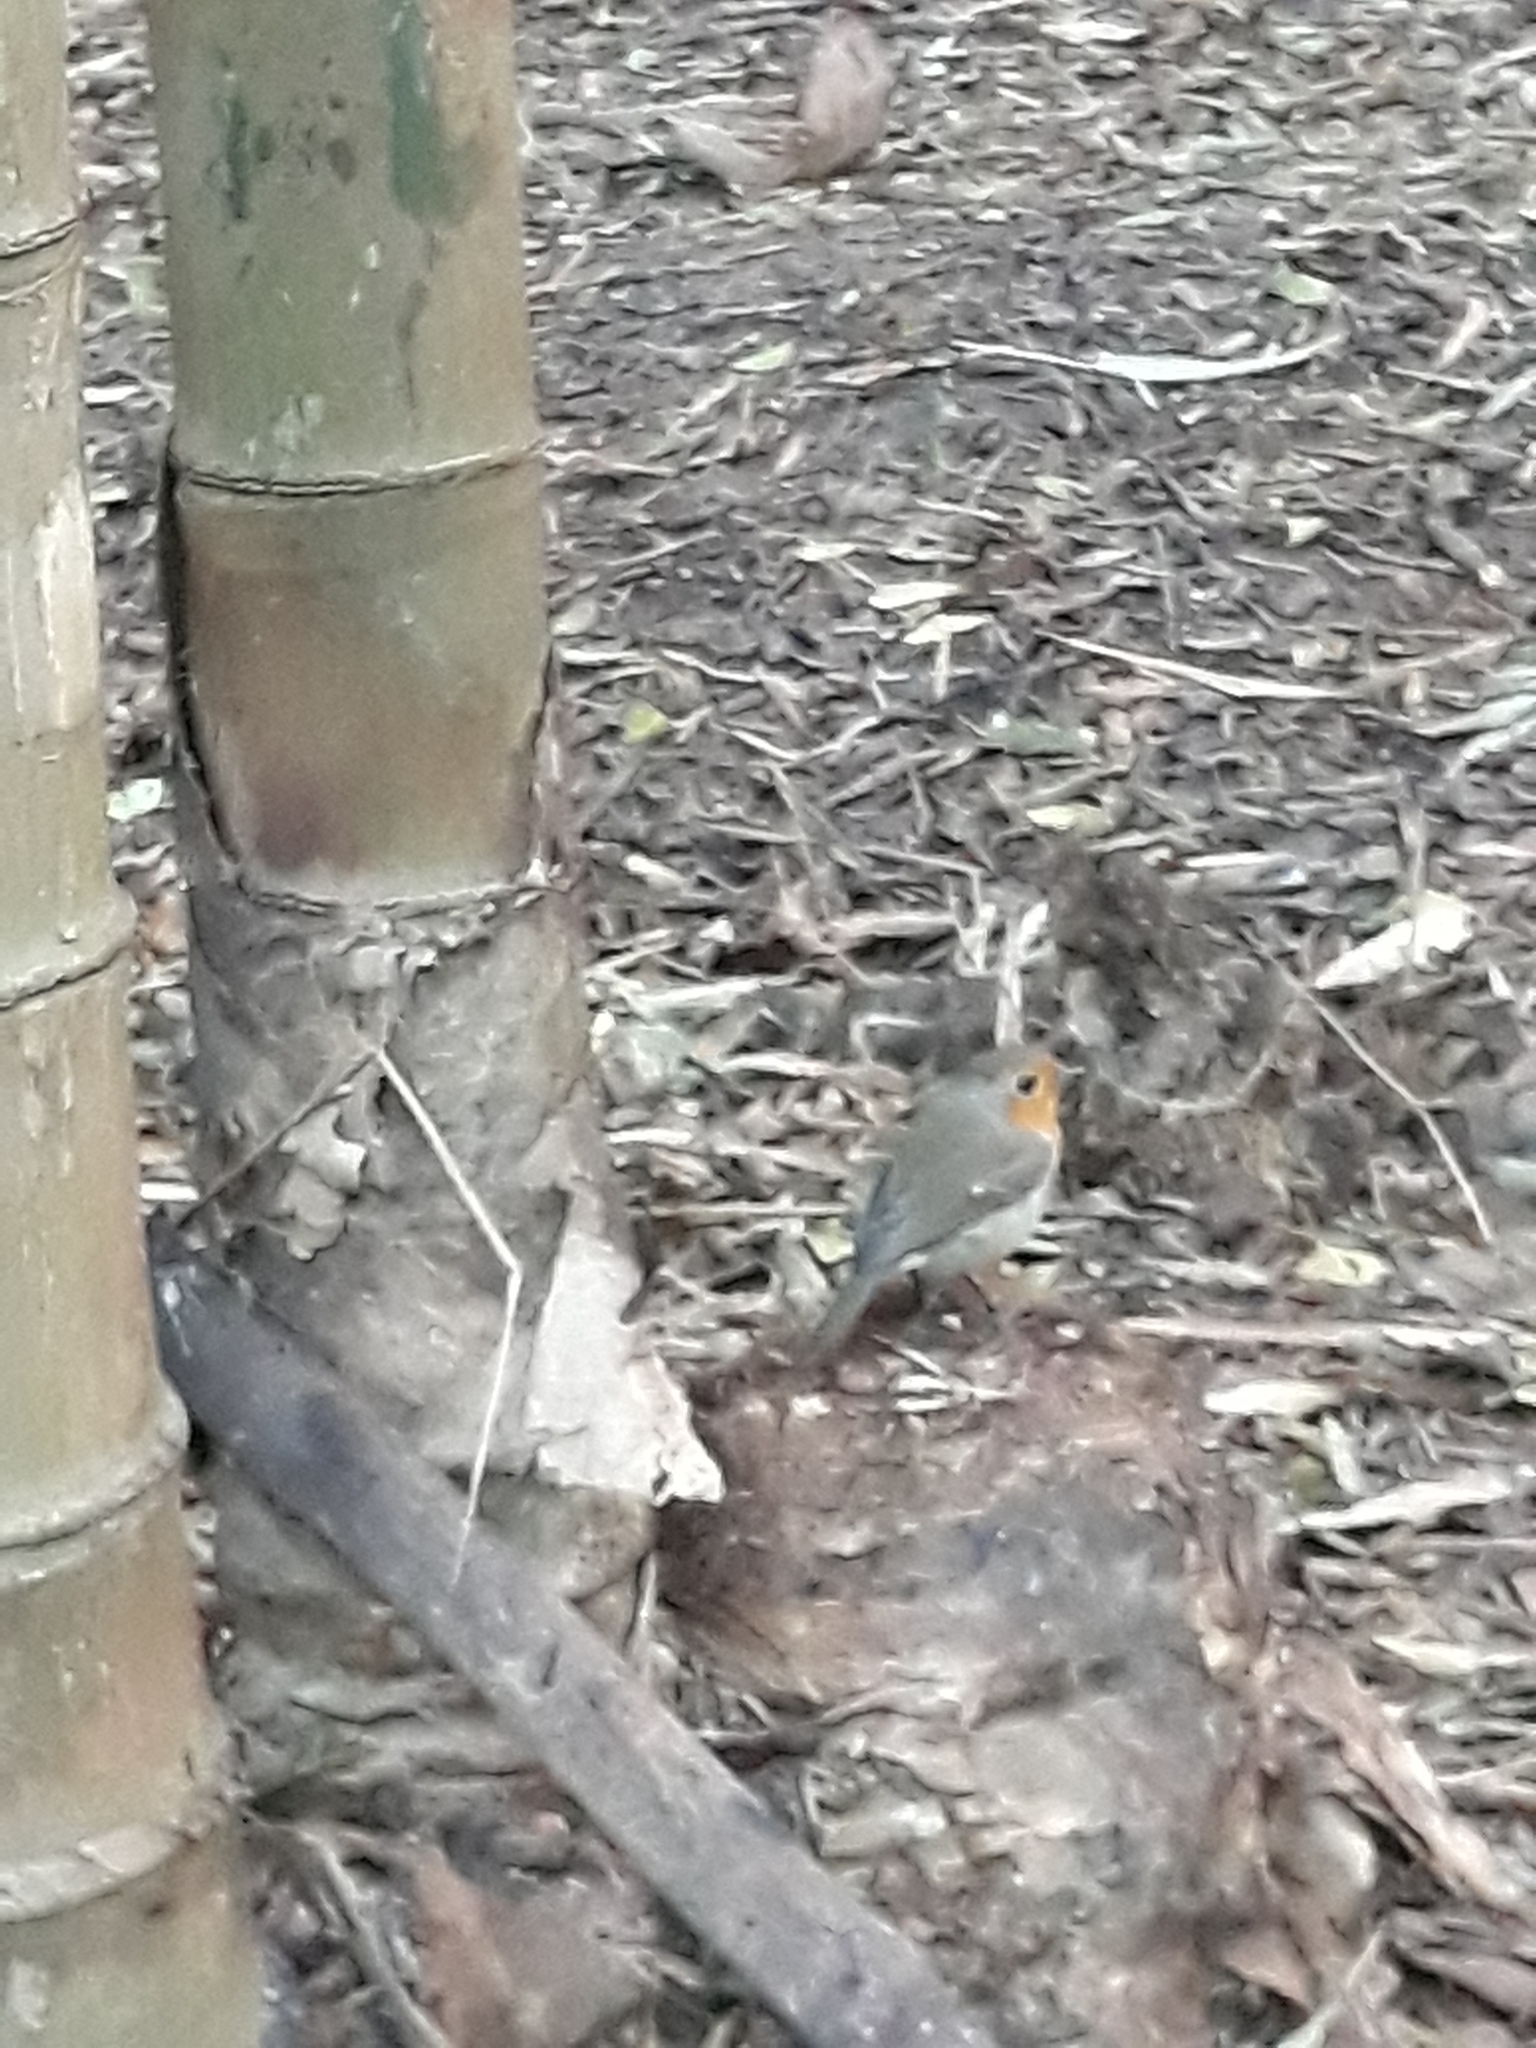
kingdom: Animalia
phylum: Chordata
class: Aves
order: Passeriformes
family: Muscicapidae
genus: Erithacus
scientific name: Erithacus rubecula
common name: European robin
